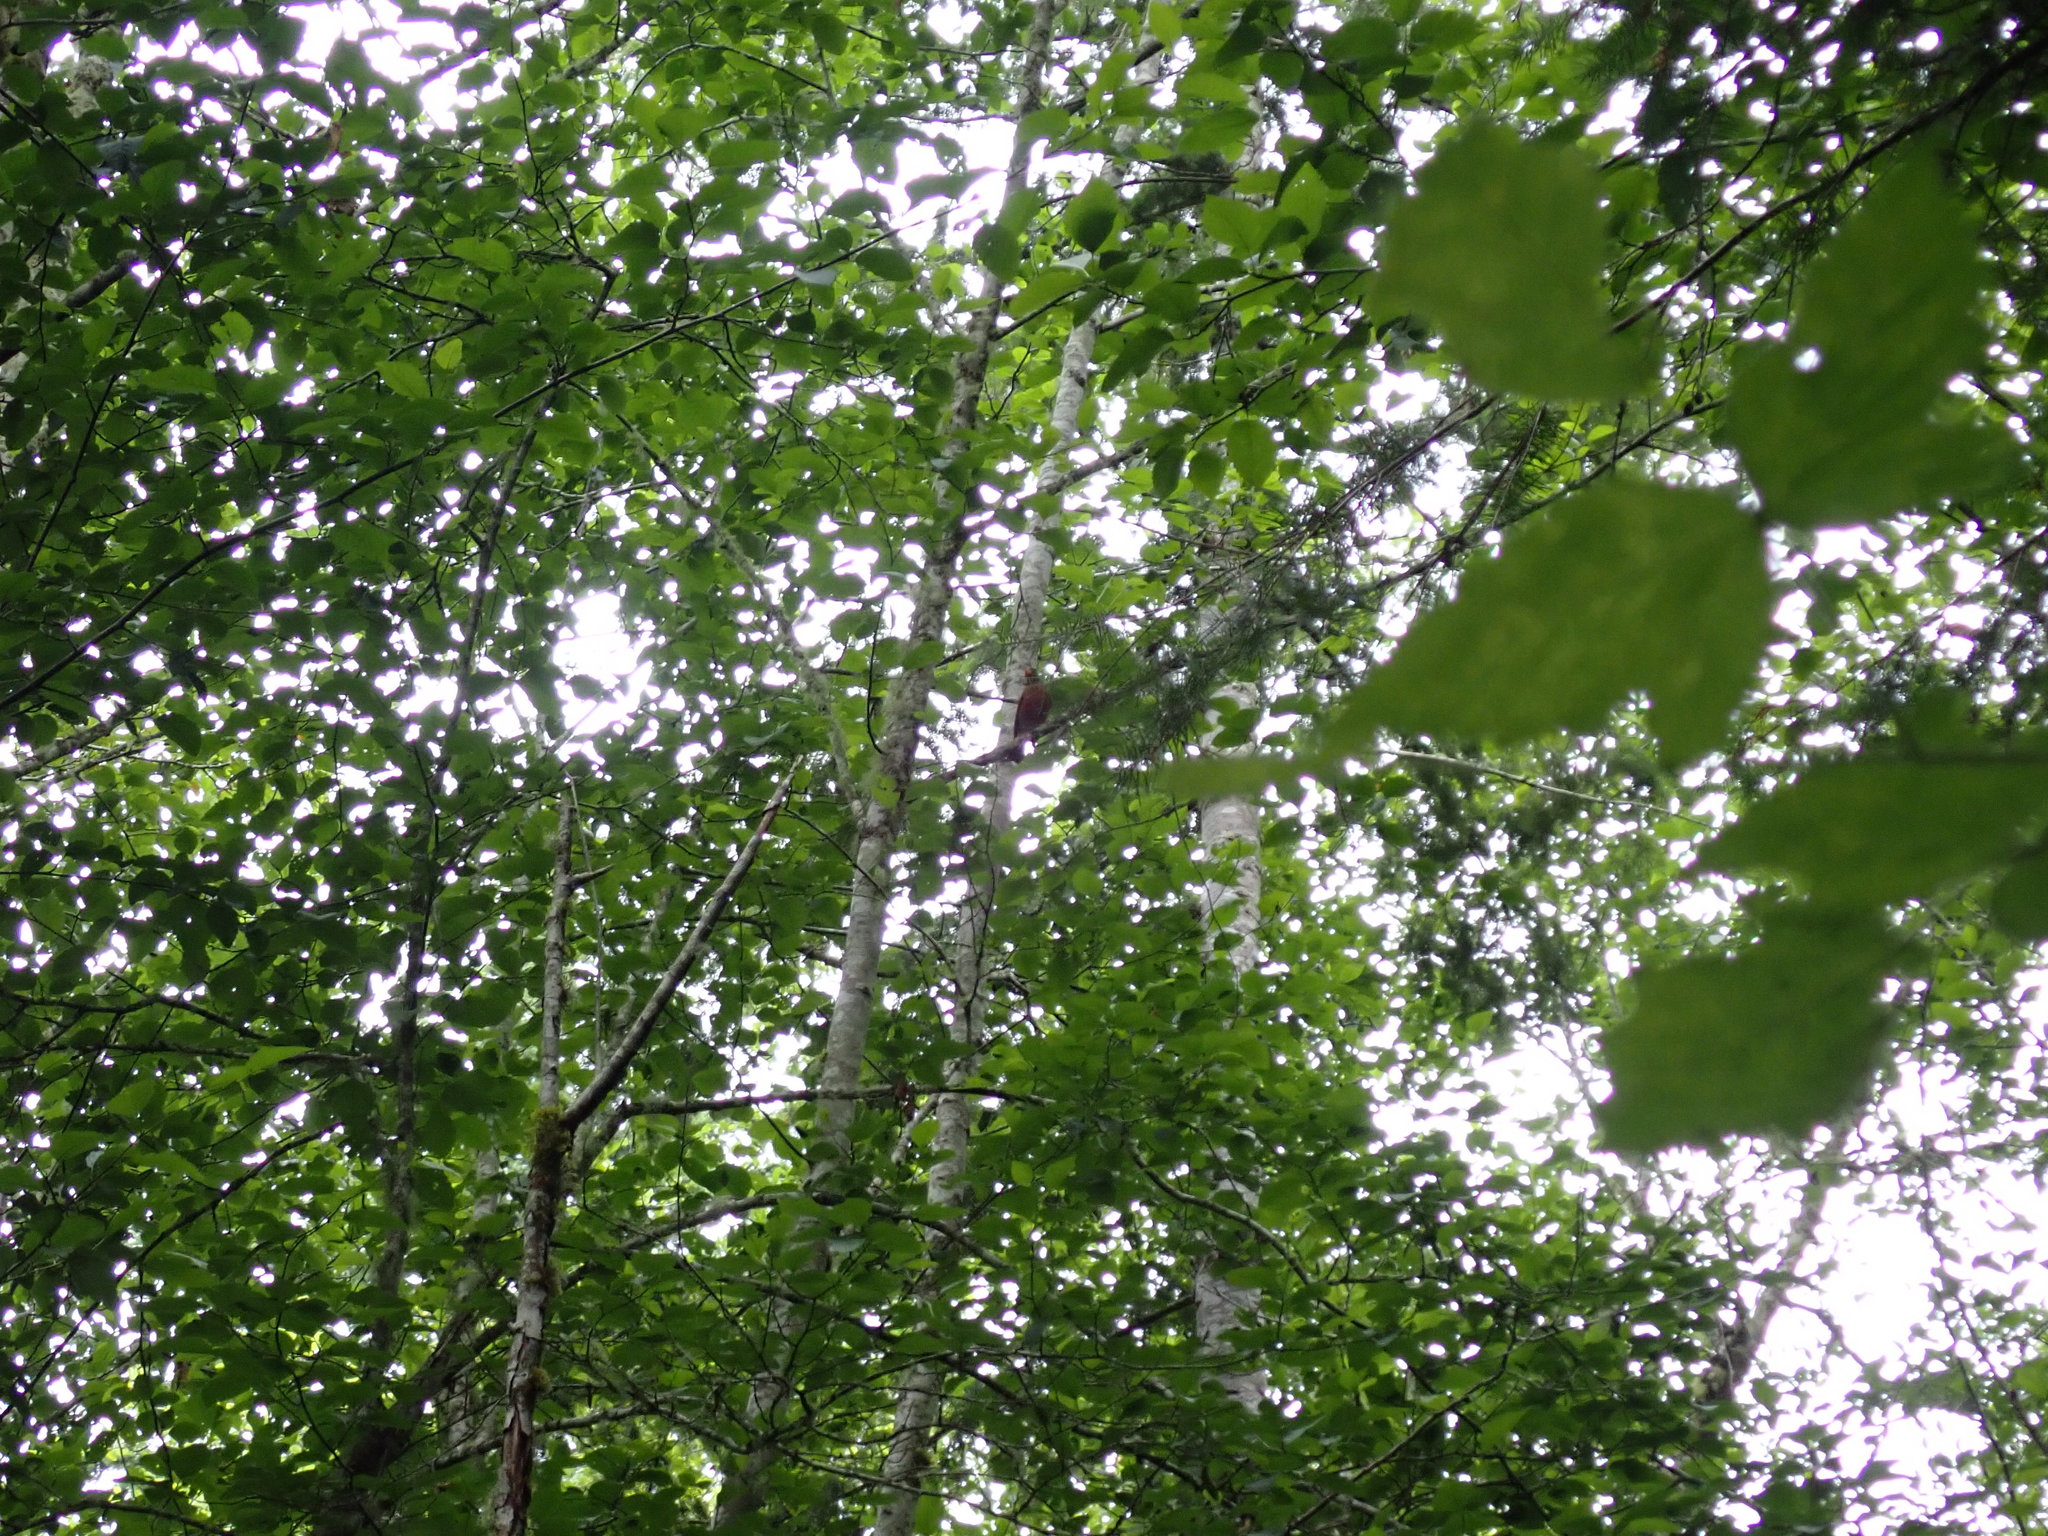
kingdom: Animalia
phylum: Chordata
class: Aves
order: Passeriformes
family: Turdidae
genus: Turdus
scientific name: Turdus migratorius
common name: American robin
